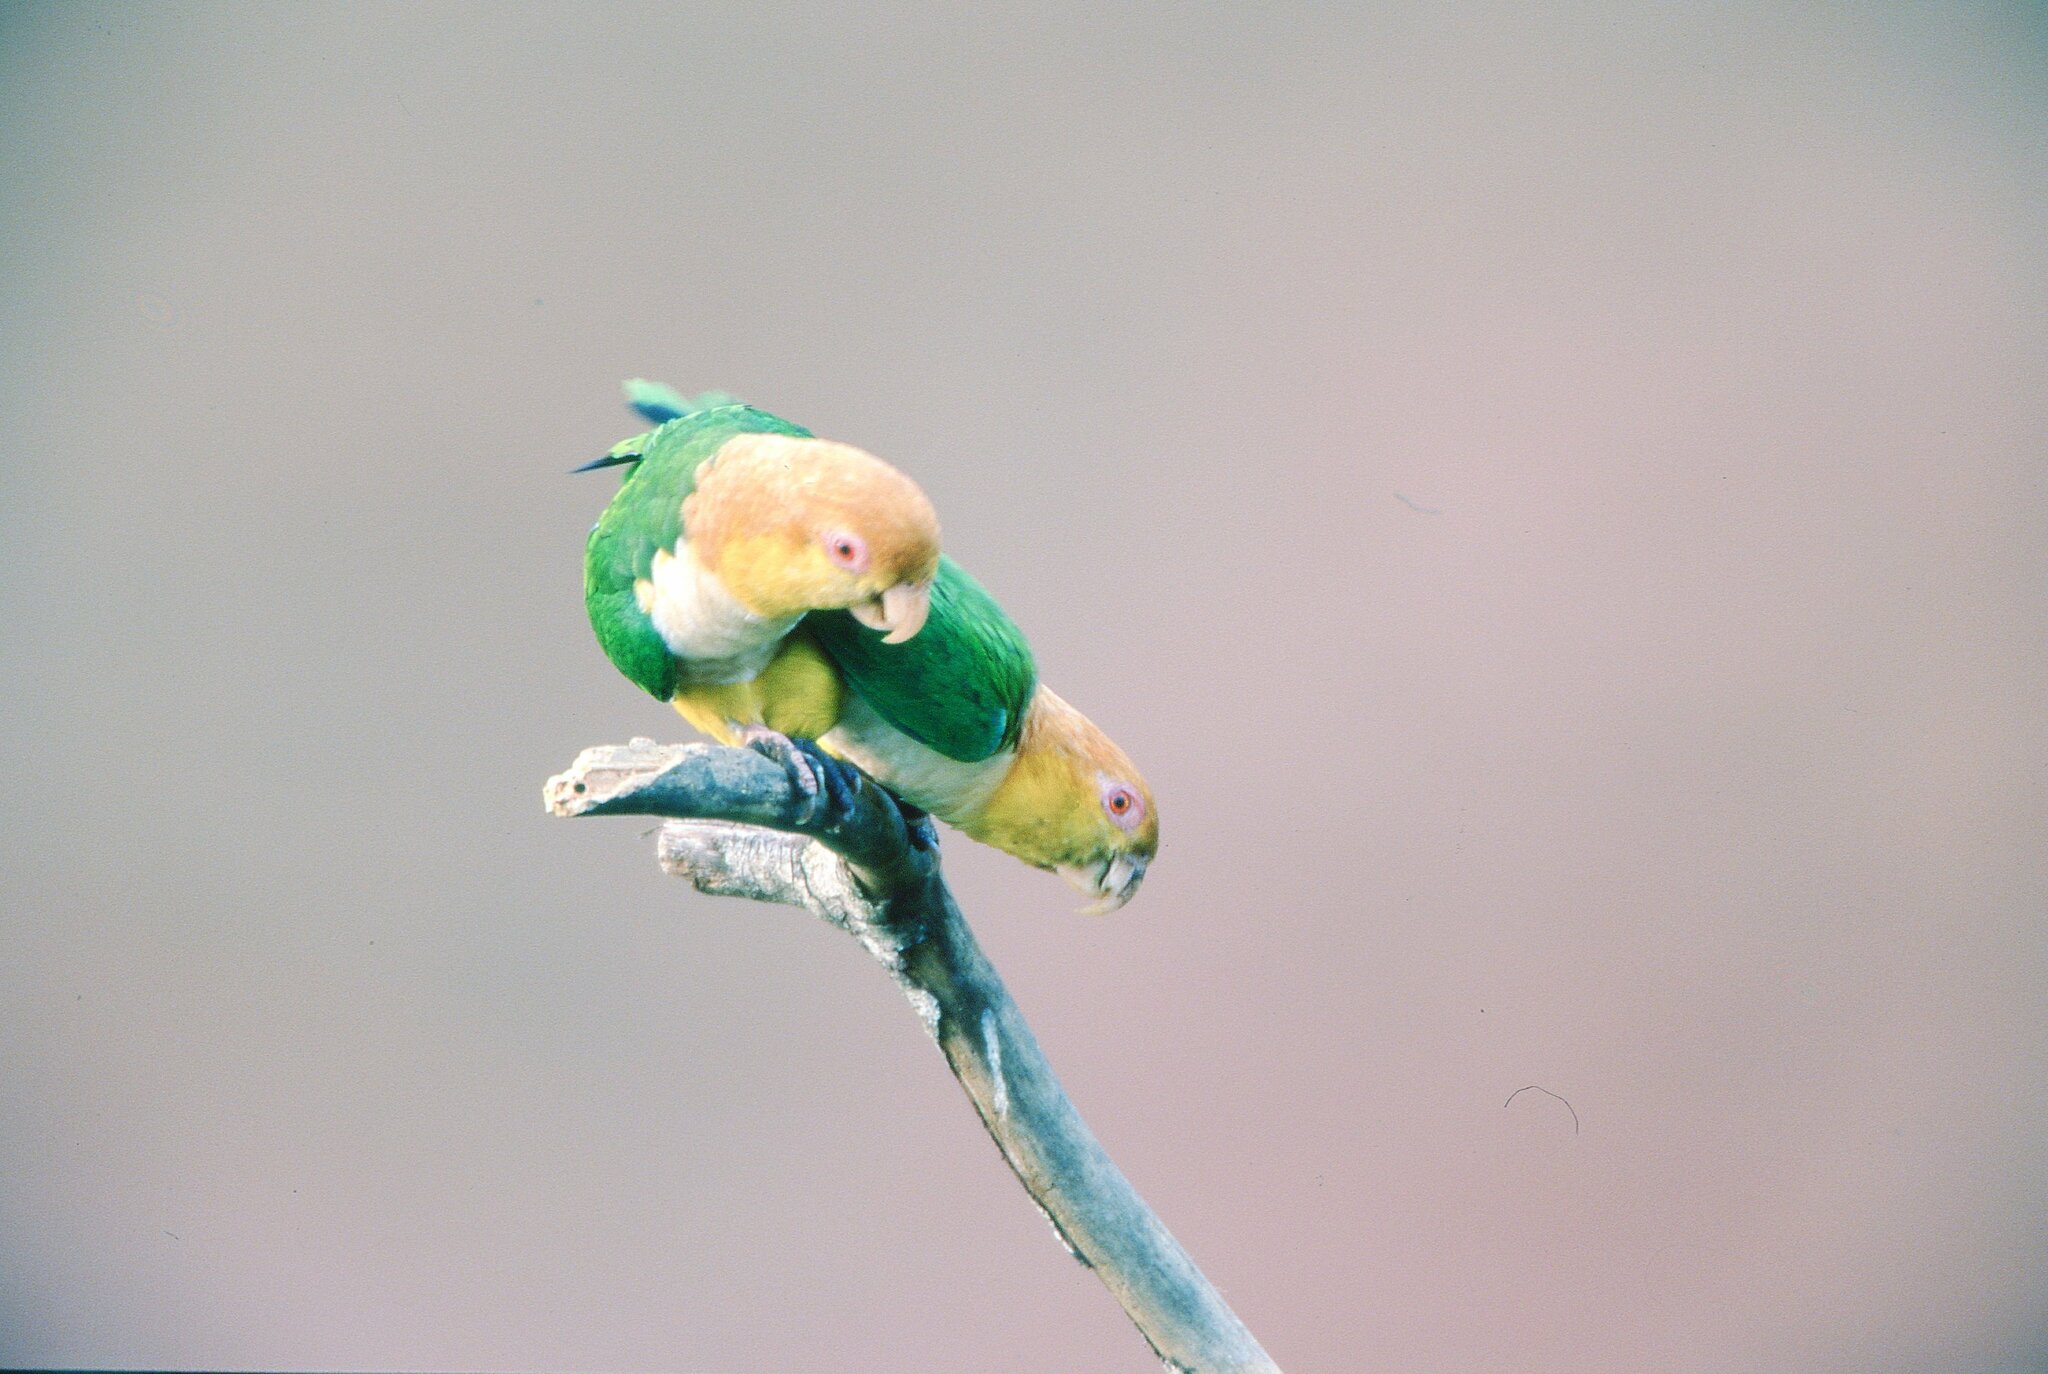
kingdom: Animalia
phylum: Chordata
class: Aves
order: Psittaciformes
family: Psittacidae
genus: Pionites
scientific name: Pionites leucogaster
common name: White-bellied parrot
